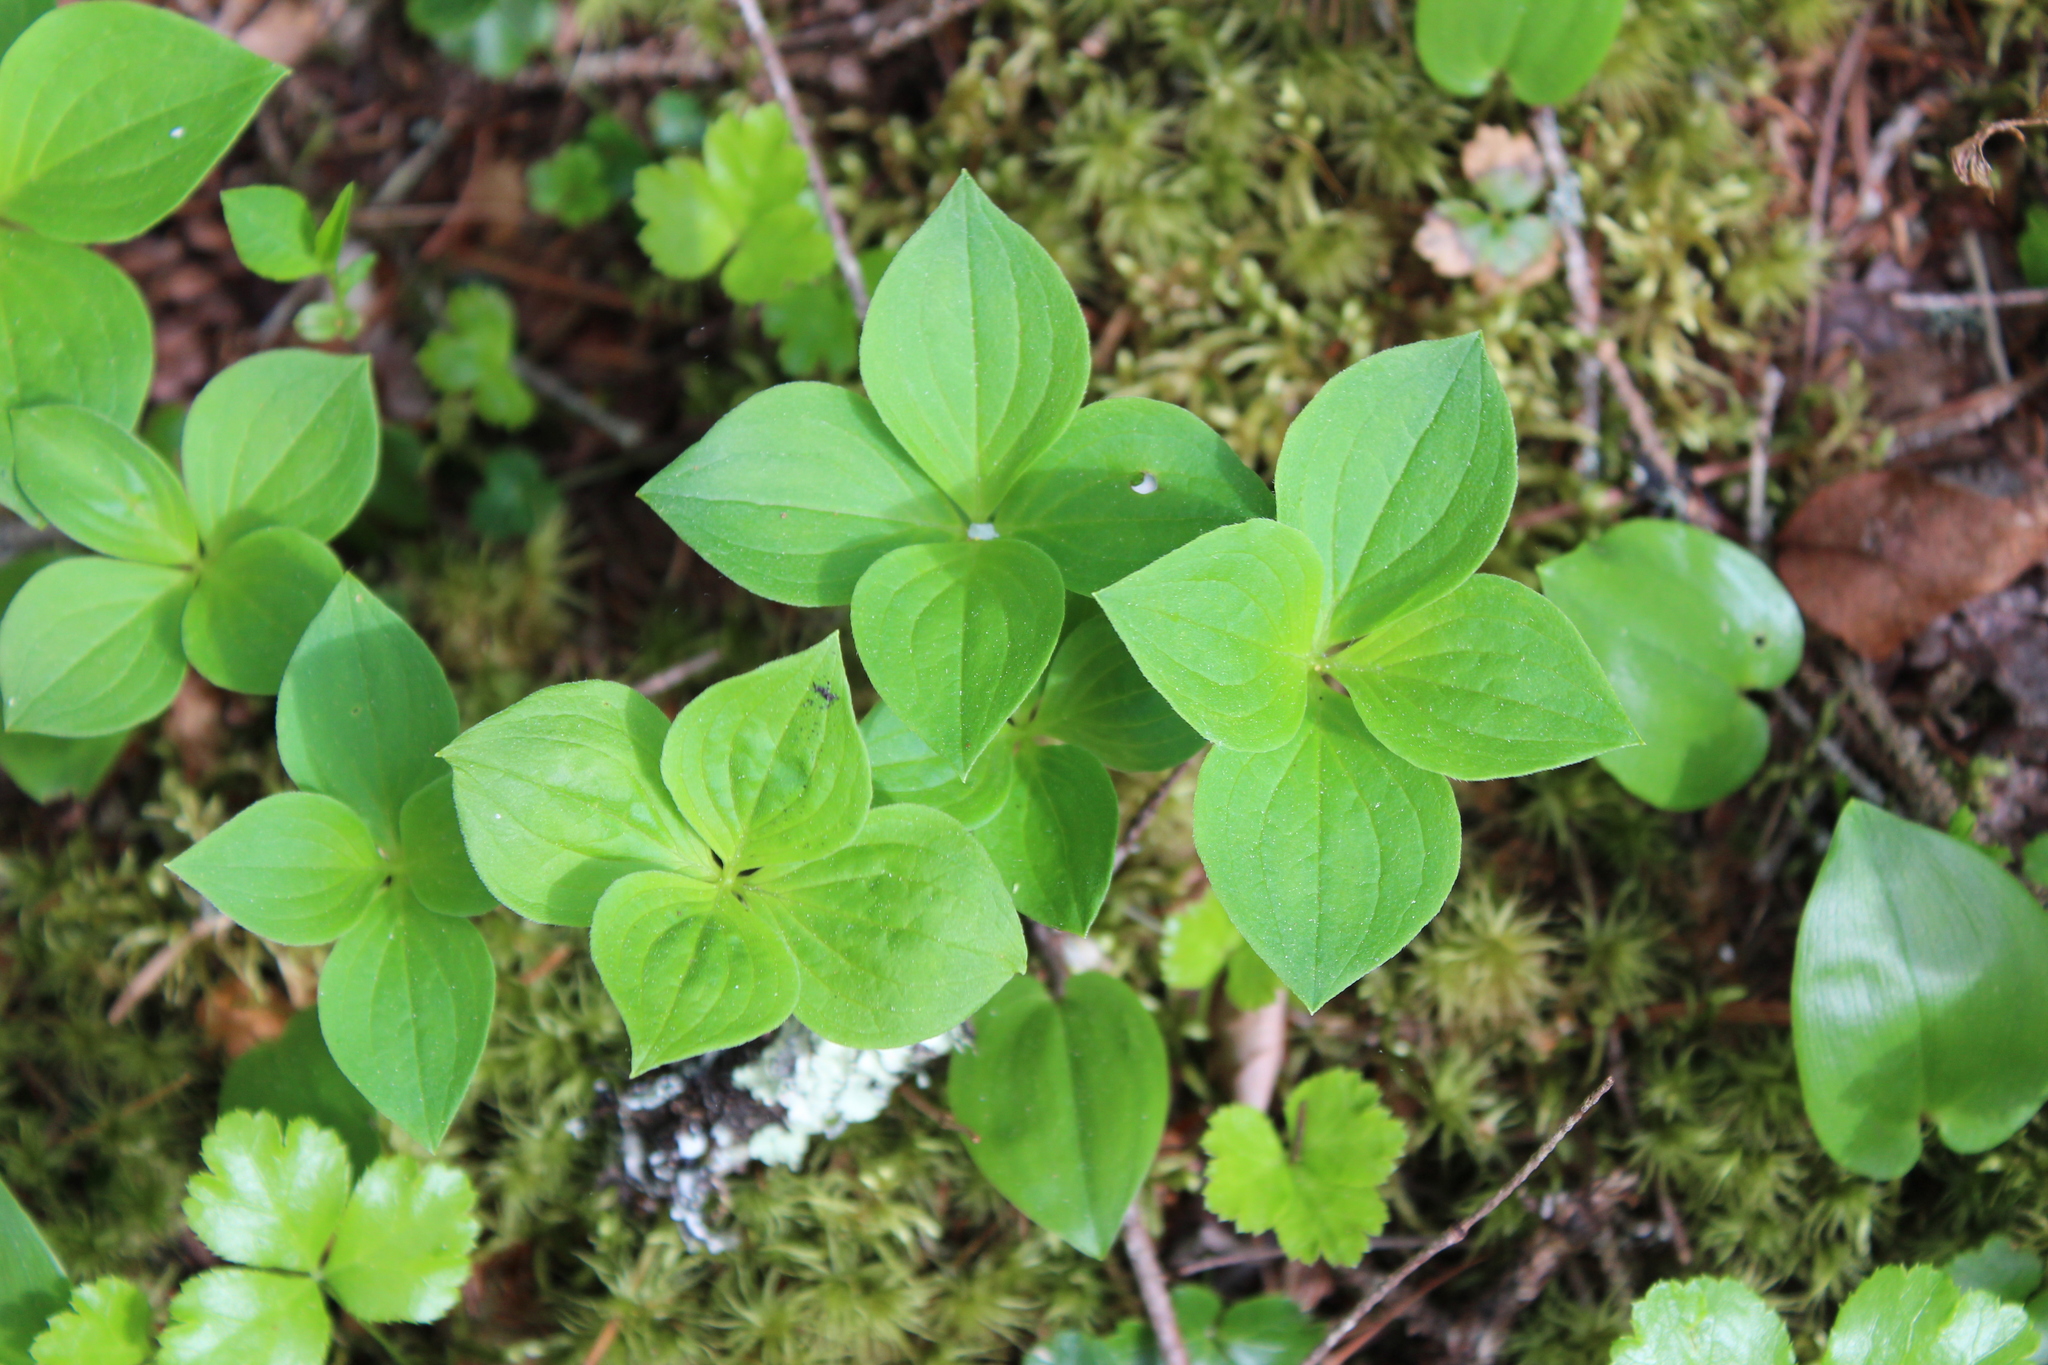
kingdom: Plantae
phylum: Tracheophyta
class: Magnoliopsida
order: Cornales
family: Cornaceae
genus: Cornus
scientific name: Cornus canadensis
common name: Creeping dogwood
